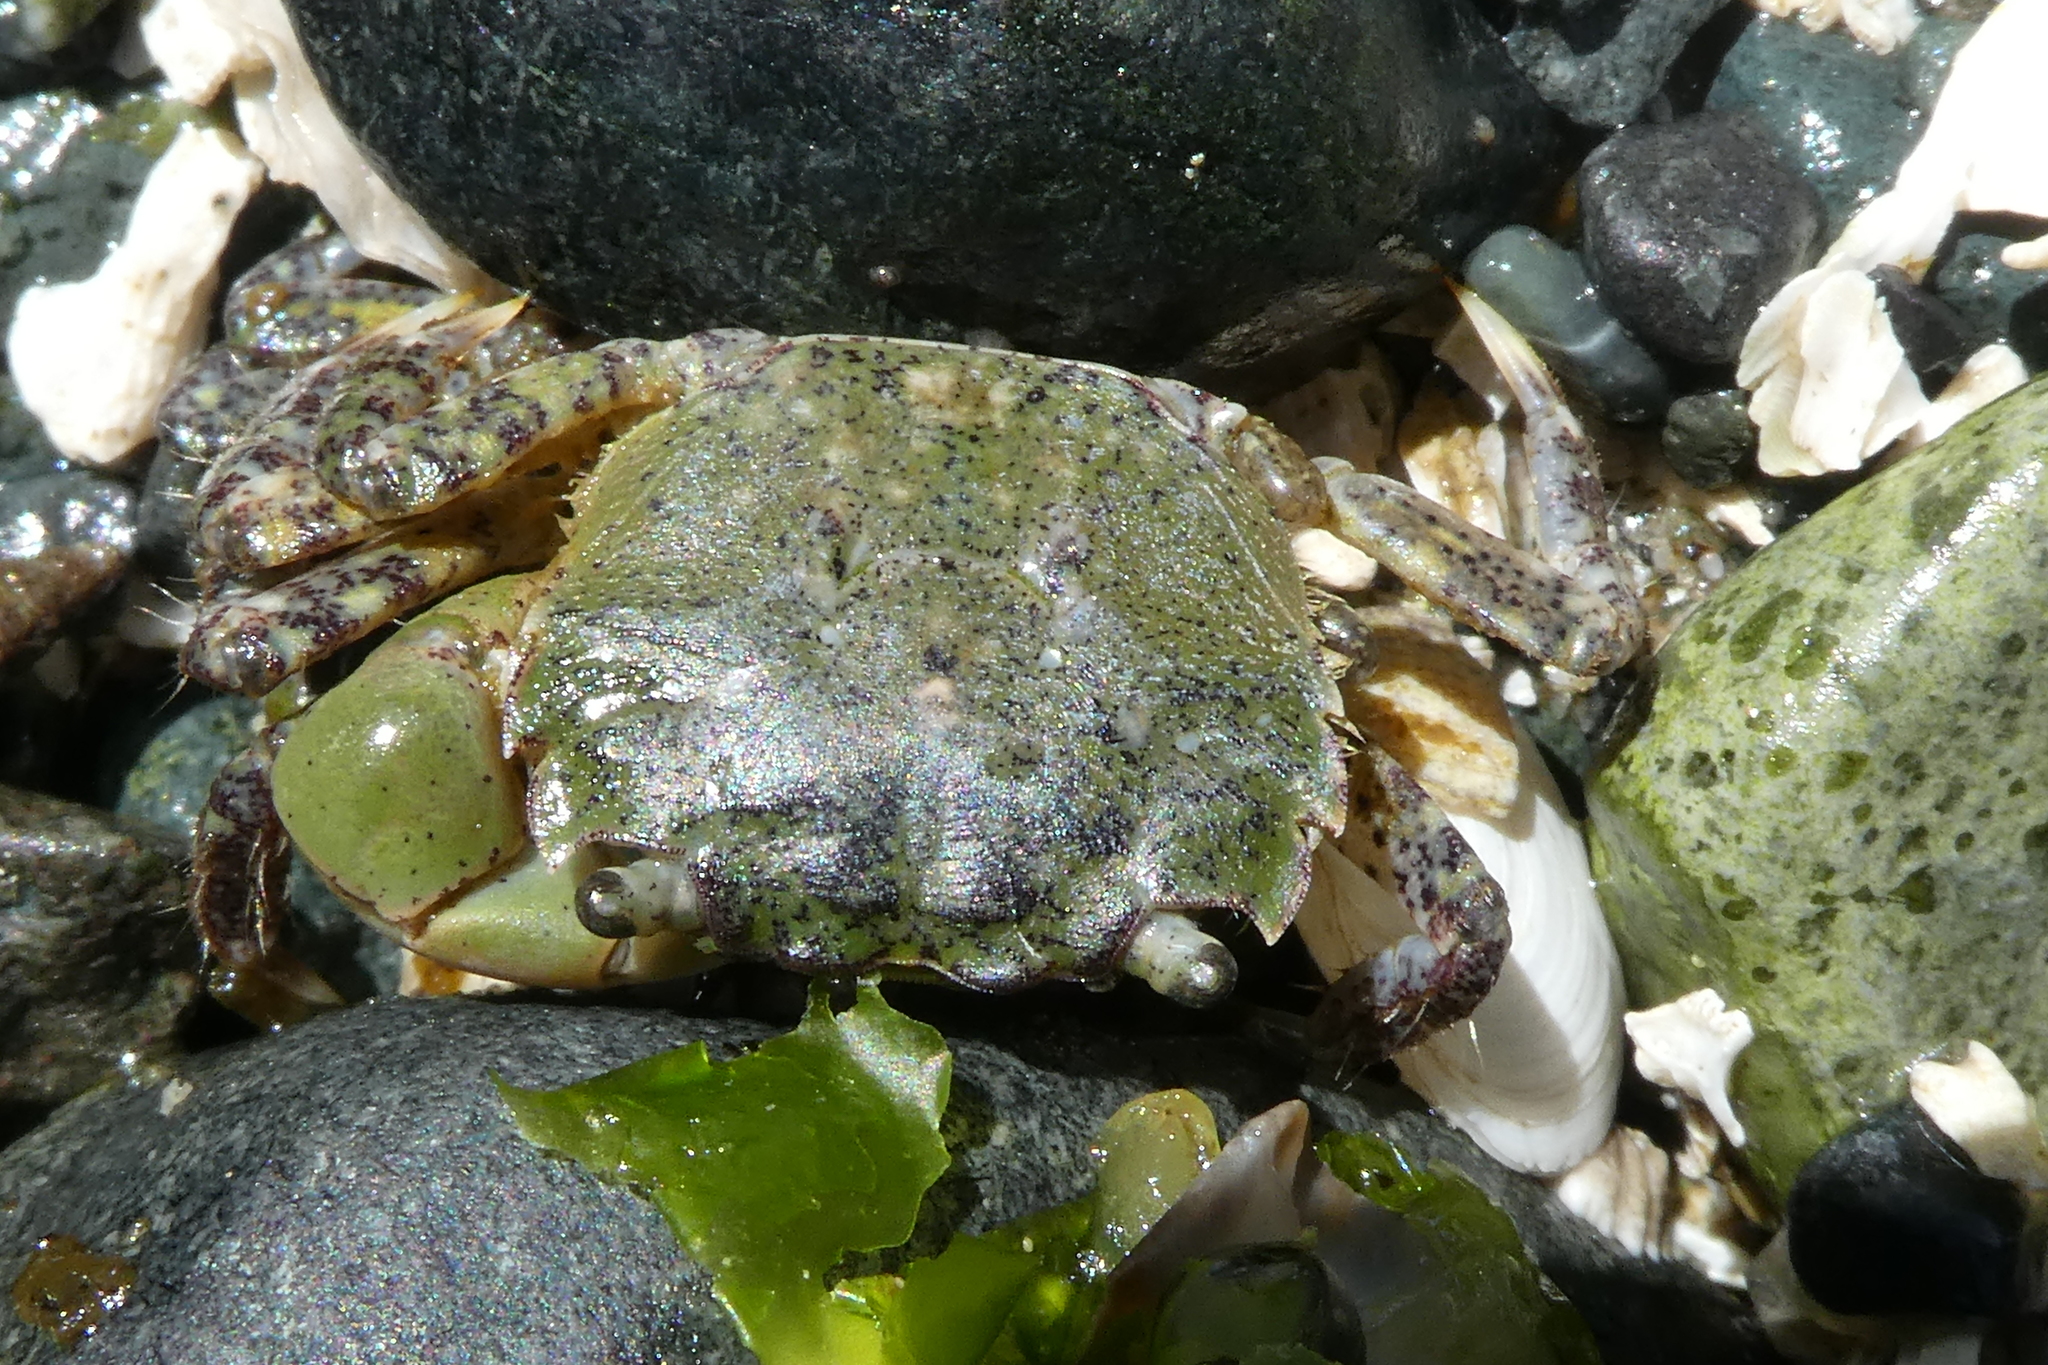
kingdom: Animalia
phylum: Arthropoda
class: Malacostraca
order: Decapoda
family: Varunidae
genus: Hemigrapsus
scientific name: Hemigrapsus oregonensis
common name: Yellow shore crab
